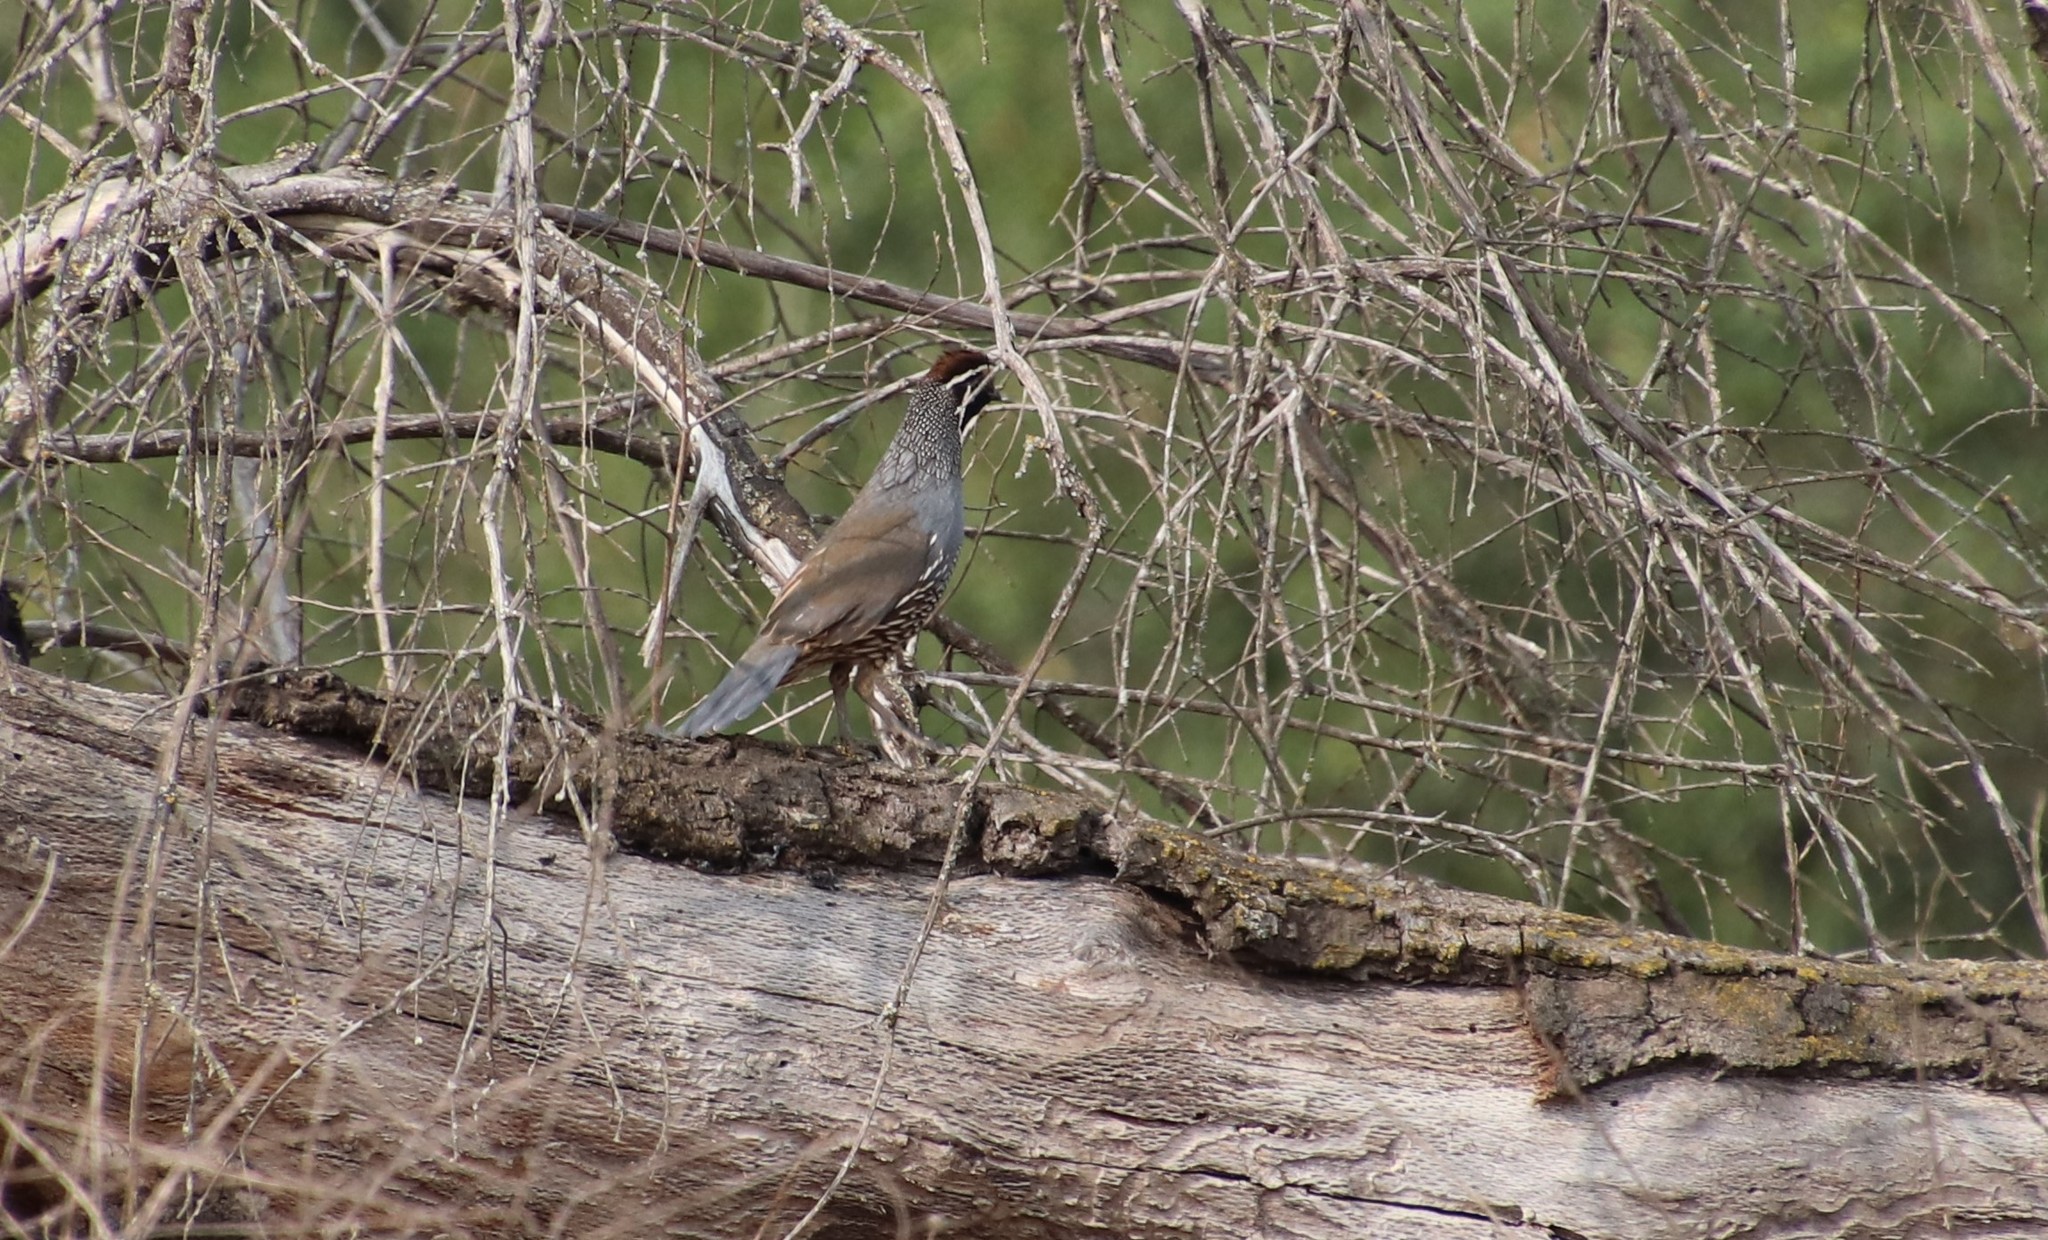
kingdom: Animalia
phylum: Chordata
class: Aves
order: Galliformes
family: Odontophoridae
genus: Callipepla
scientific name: Callipepla californica
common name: California quail
